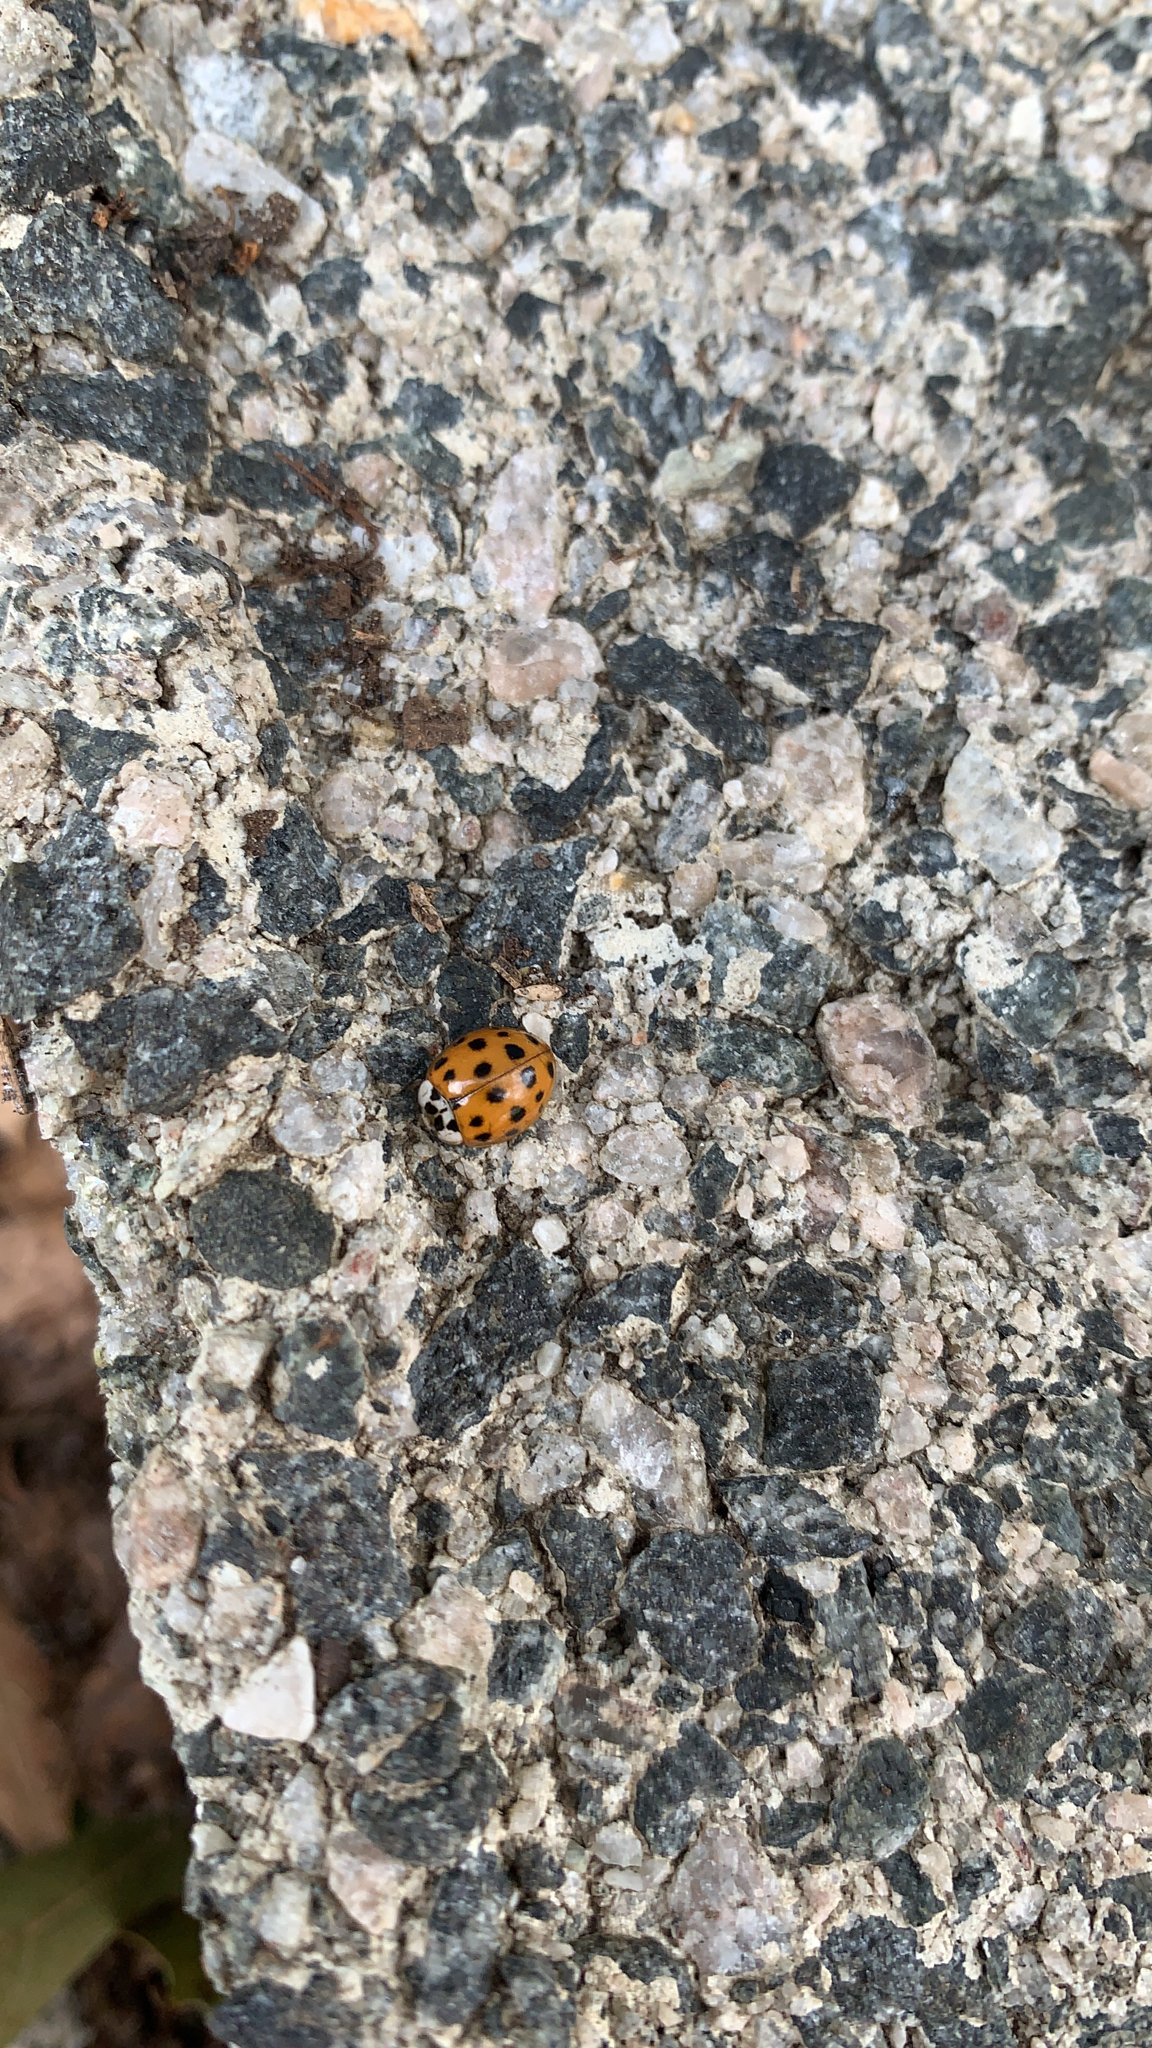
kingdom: Animalia
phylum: Arthropoda
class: Insecta
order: Coleoptera
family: Coccinellidae
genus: Harmonia
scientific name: Harmonia axyridis
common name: Harlequin ladybird
